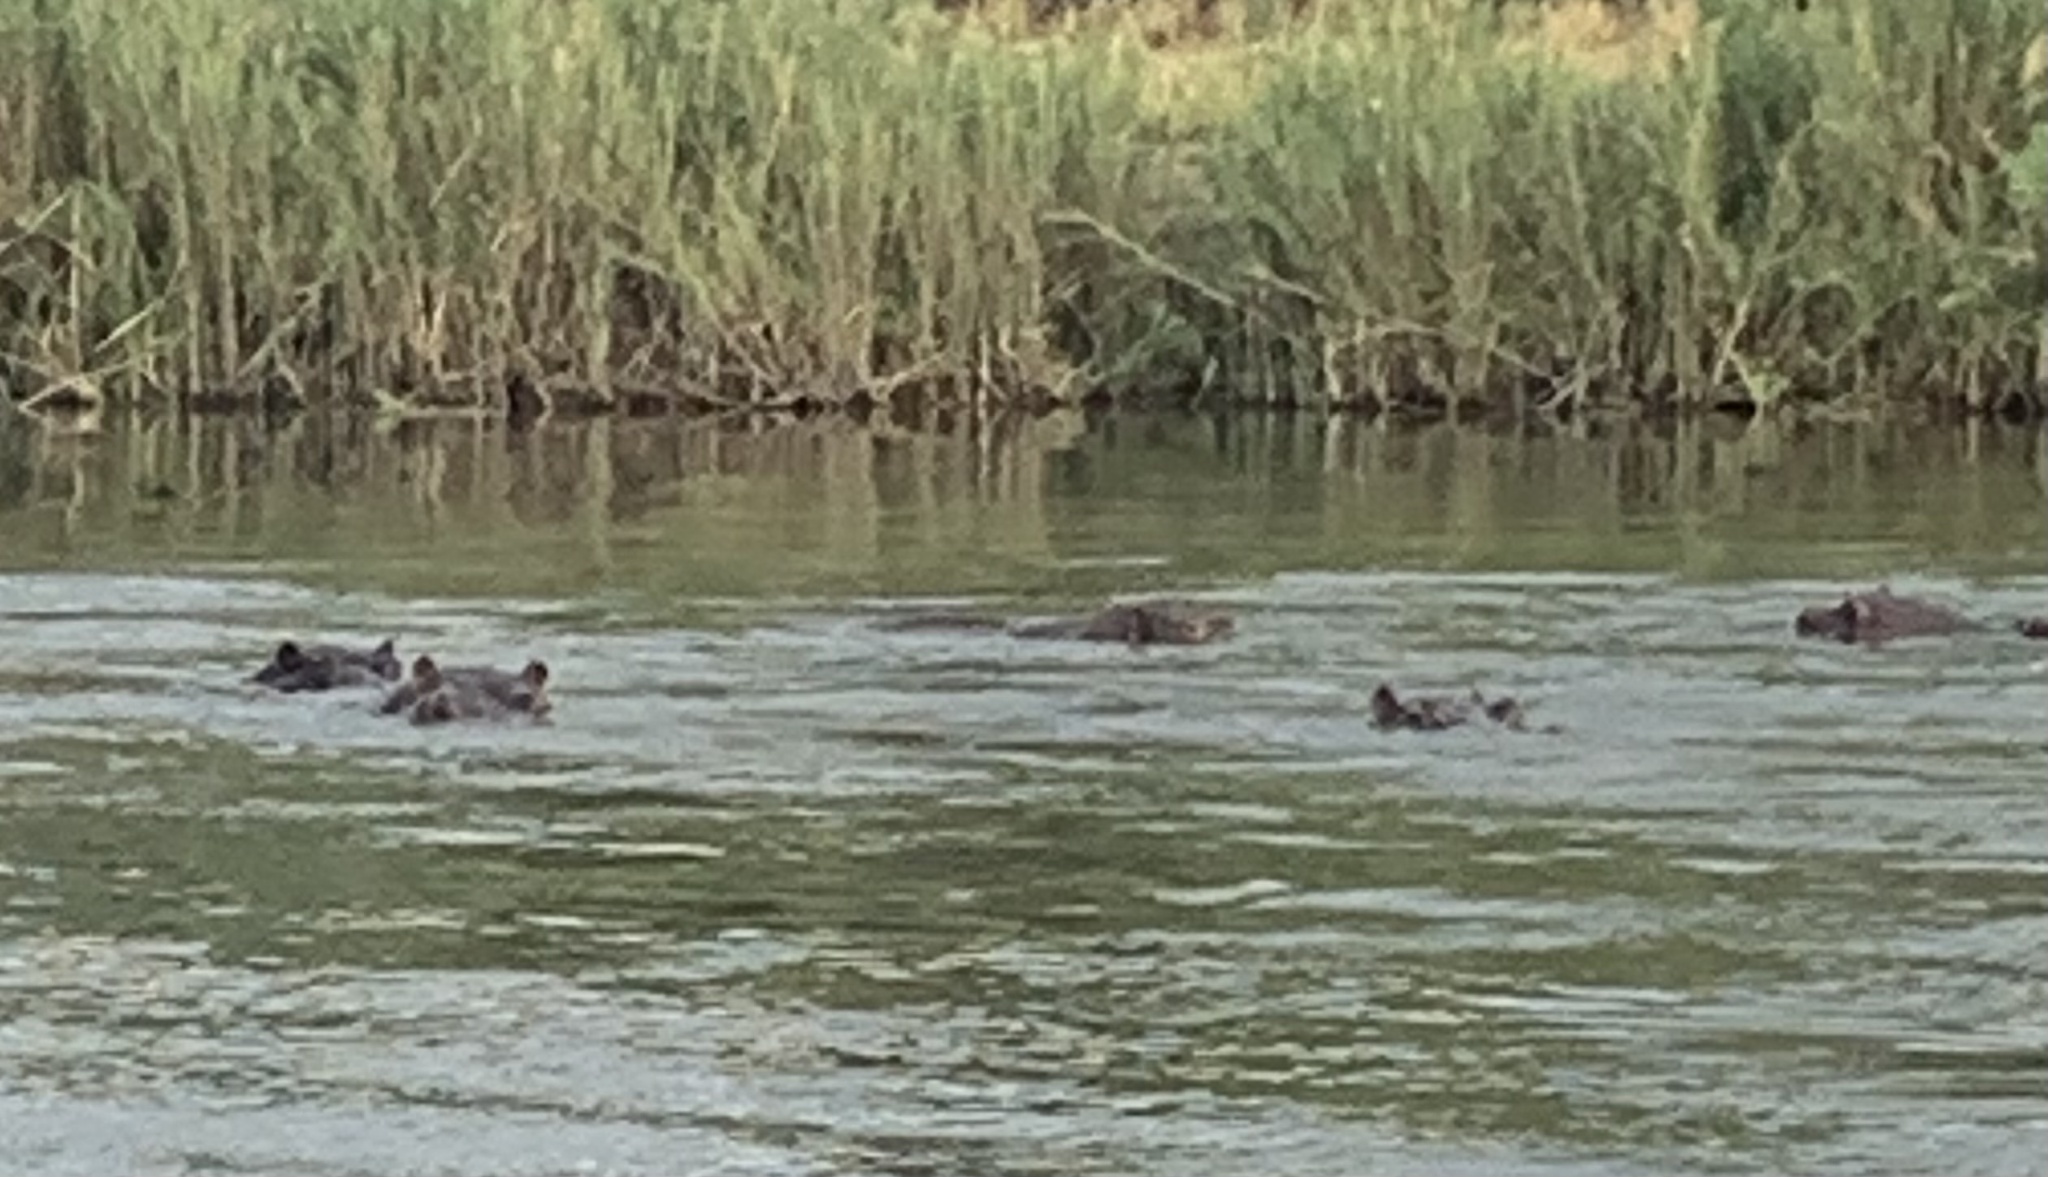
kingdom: Animalia
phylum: Chordata
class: Mammalia
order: Artiodactyla
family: Hippopotamidae
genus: Hippopotamus
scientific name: Hippopotamus amphibius
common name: Common hippopotamus
